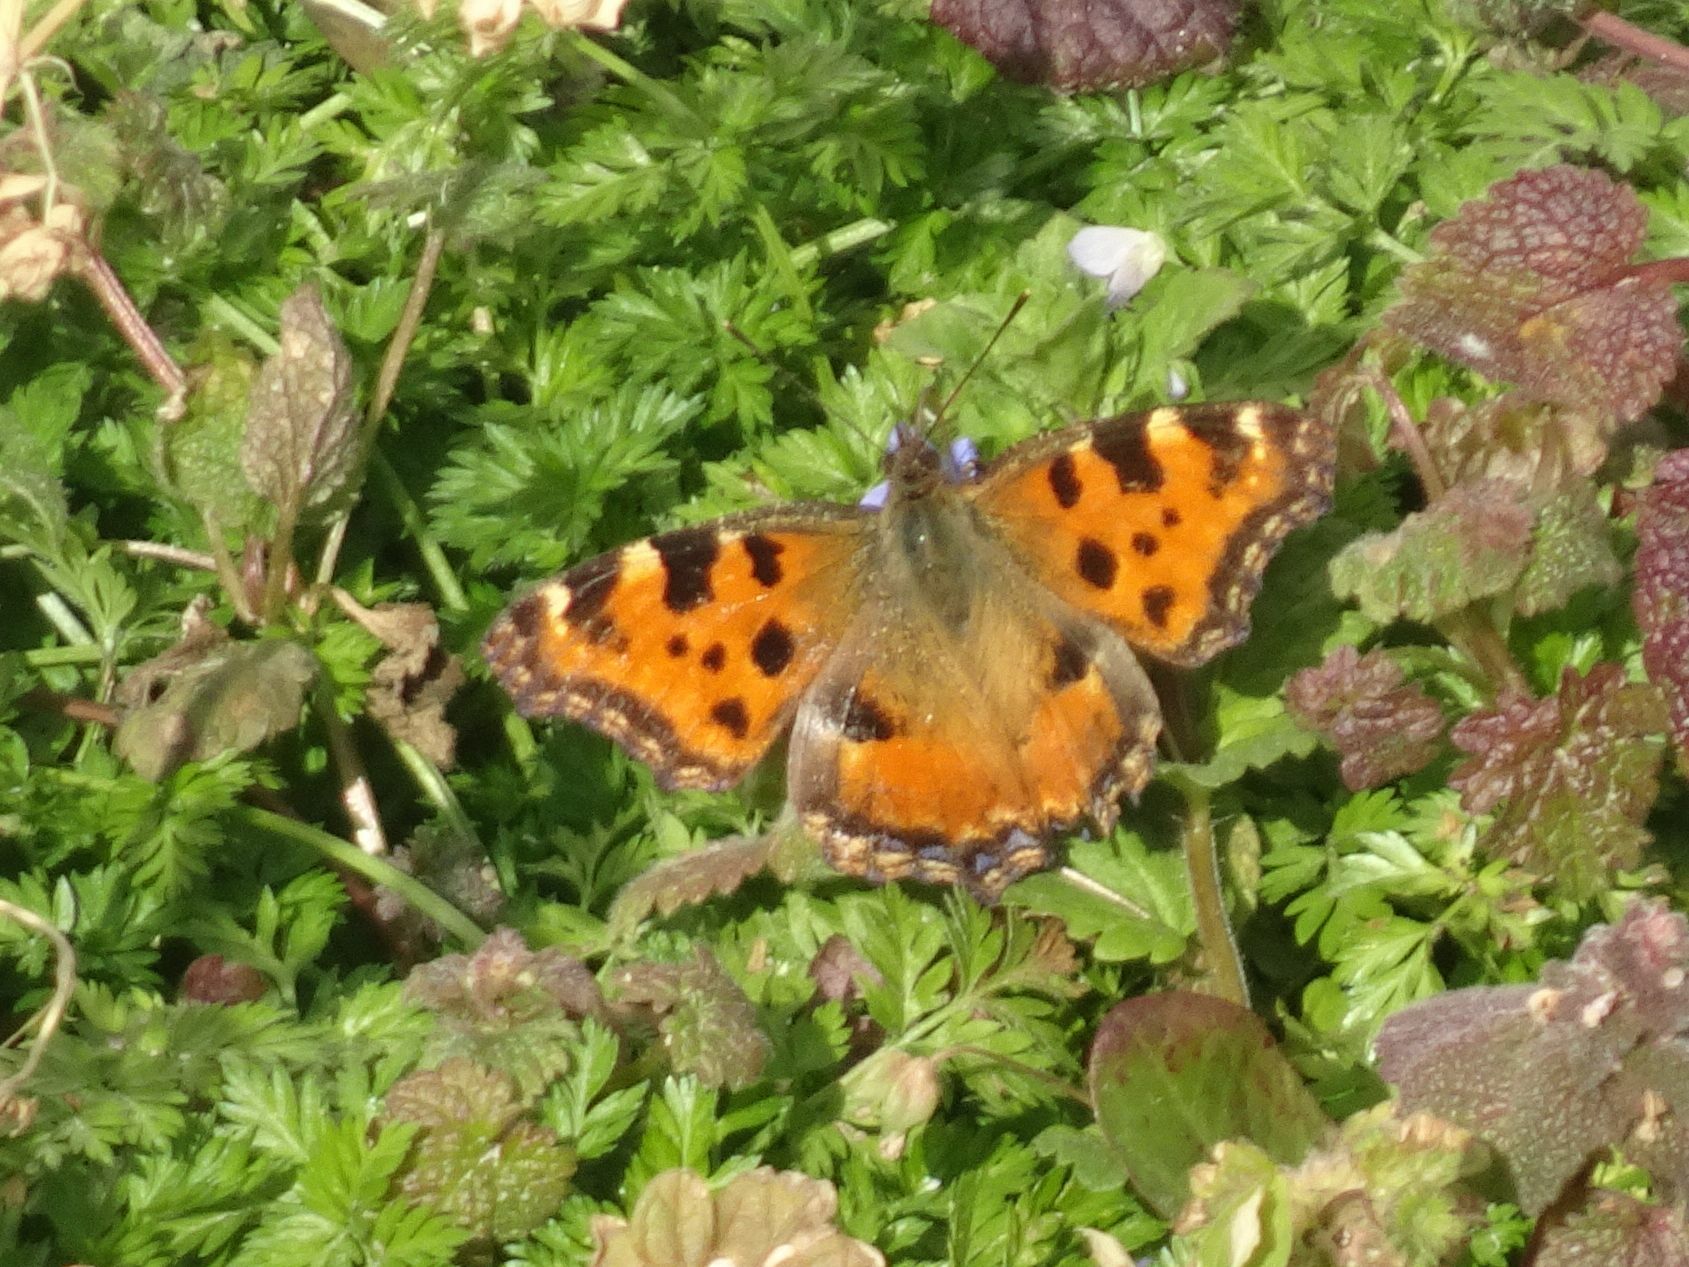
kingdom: Animalia
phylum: Arthropoda
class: Insecta
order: Lepidoptera
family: Nymphalidae
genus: Nymphalis
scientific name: Nymphalis polychloros
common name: Large tortoiseshell
